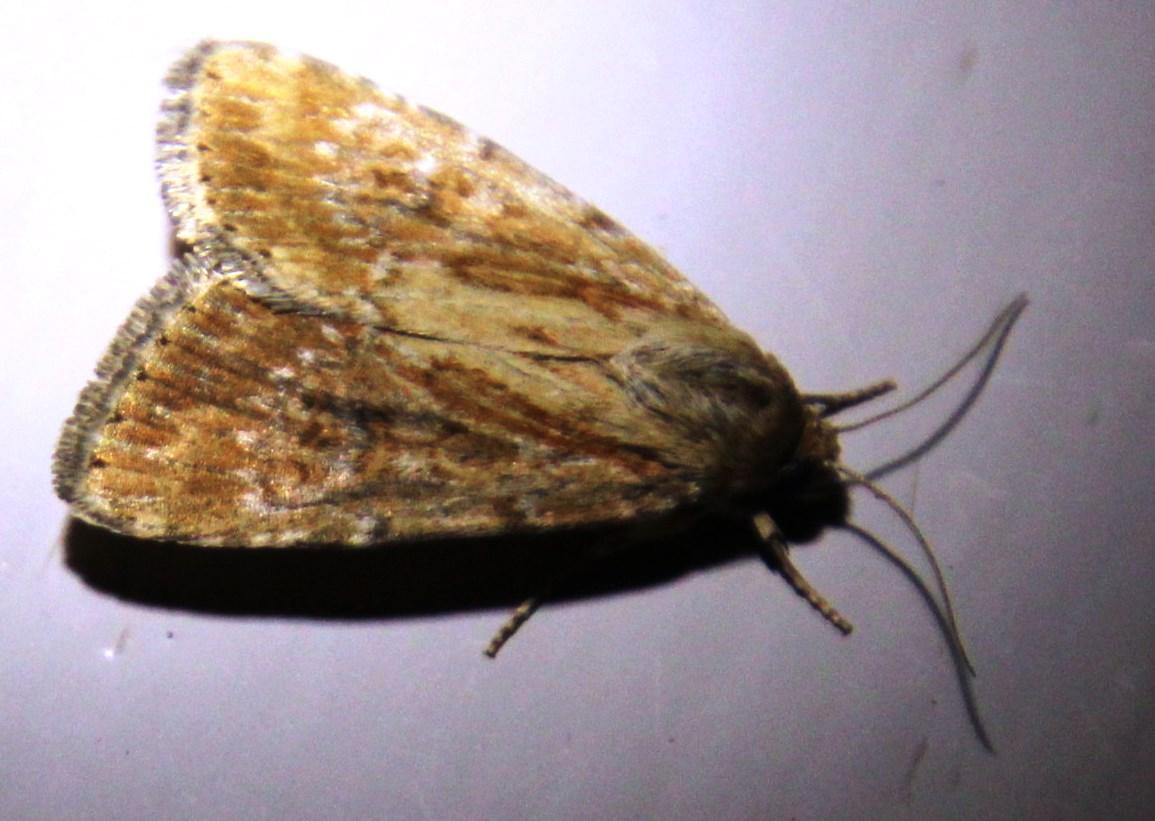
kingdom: Animalia
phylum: Arthropoda
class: Insecta
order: Lepidoptera
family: Noctuidae
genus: Heliocheilus
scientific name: Heliocheilus stigmatia
